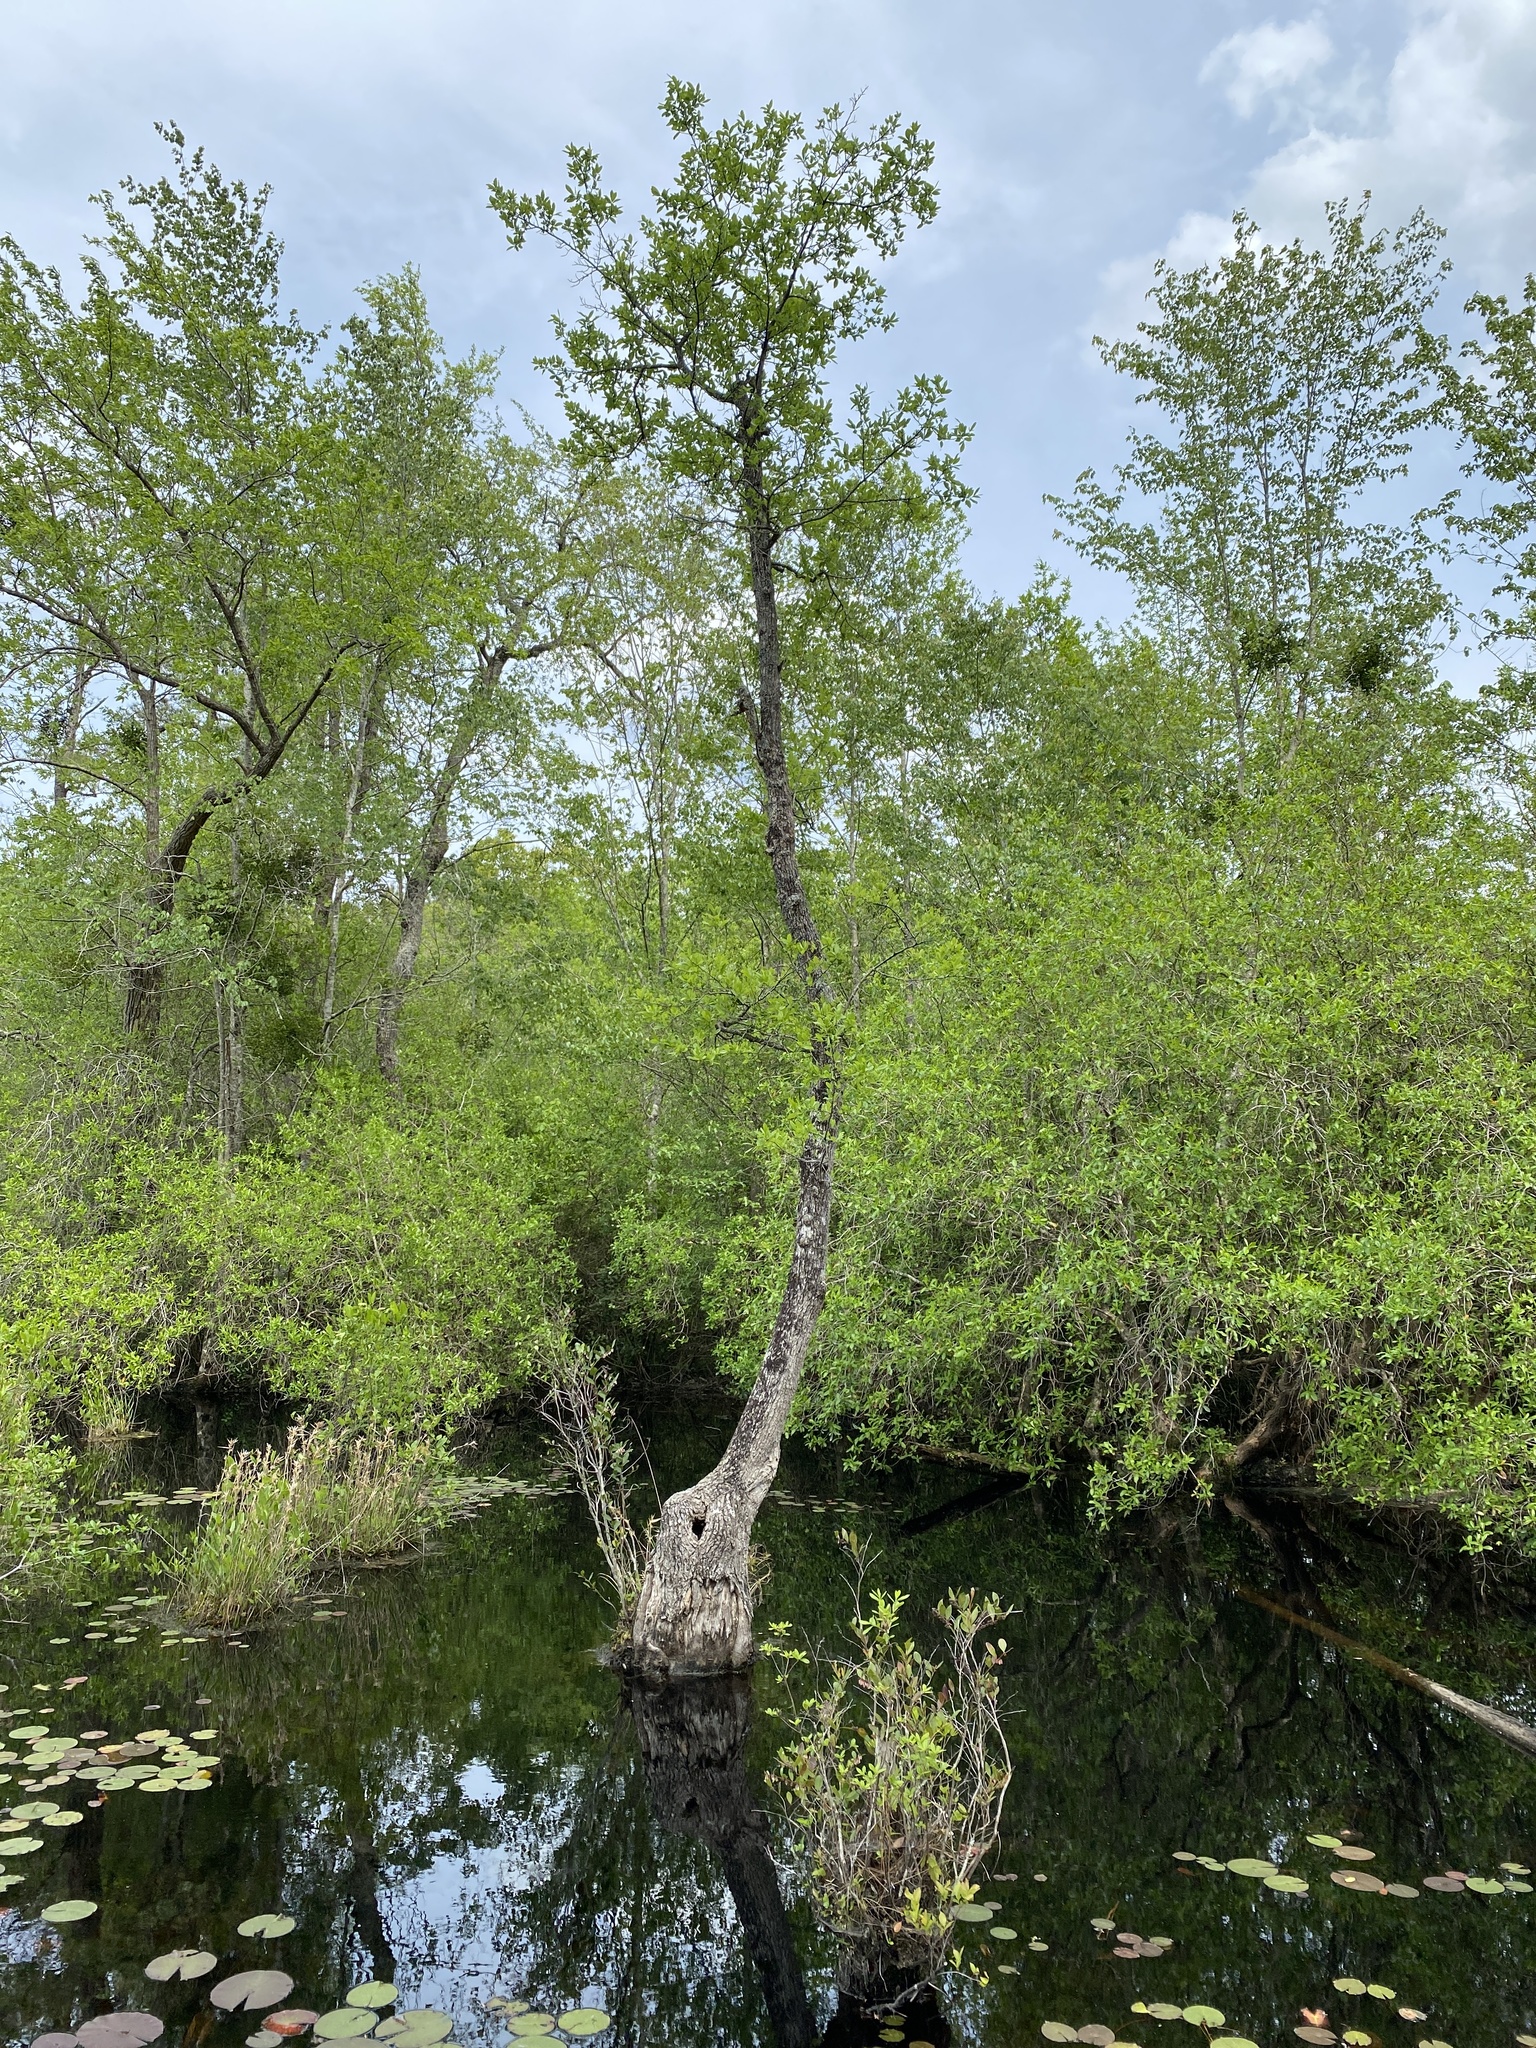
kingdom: Plantae
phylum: Tracheophyta
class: Magnoliopsida
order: Cornales
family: Nyssaceae
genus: Nyssa
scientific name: Nyssa biflora
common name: Swamp blackgum
